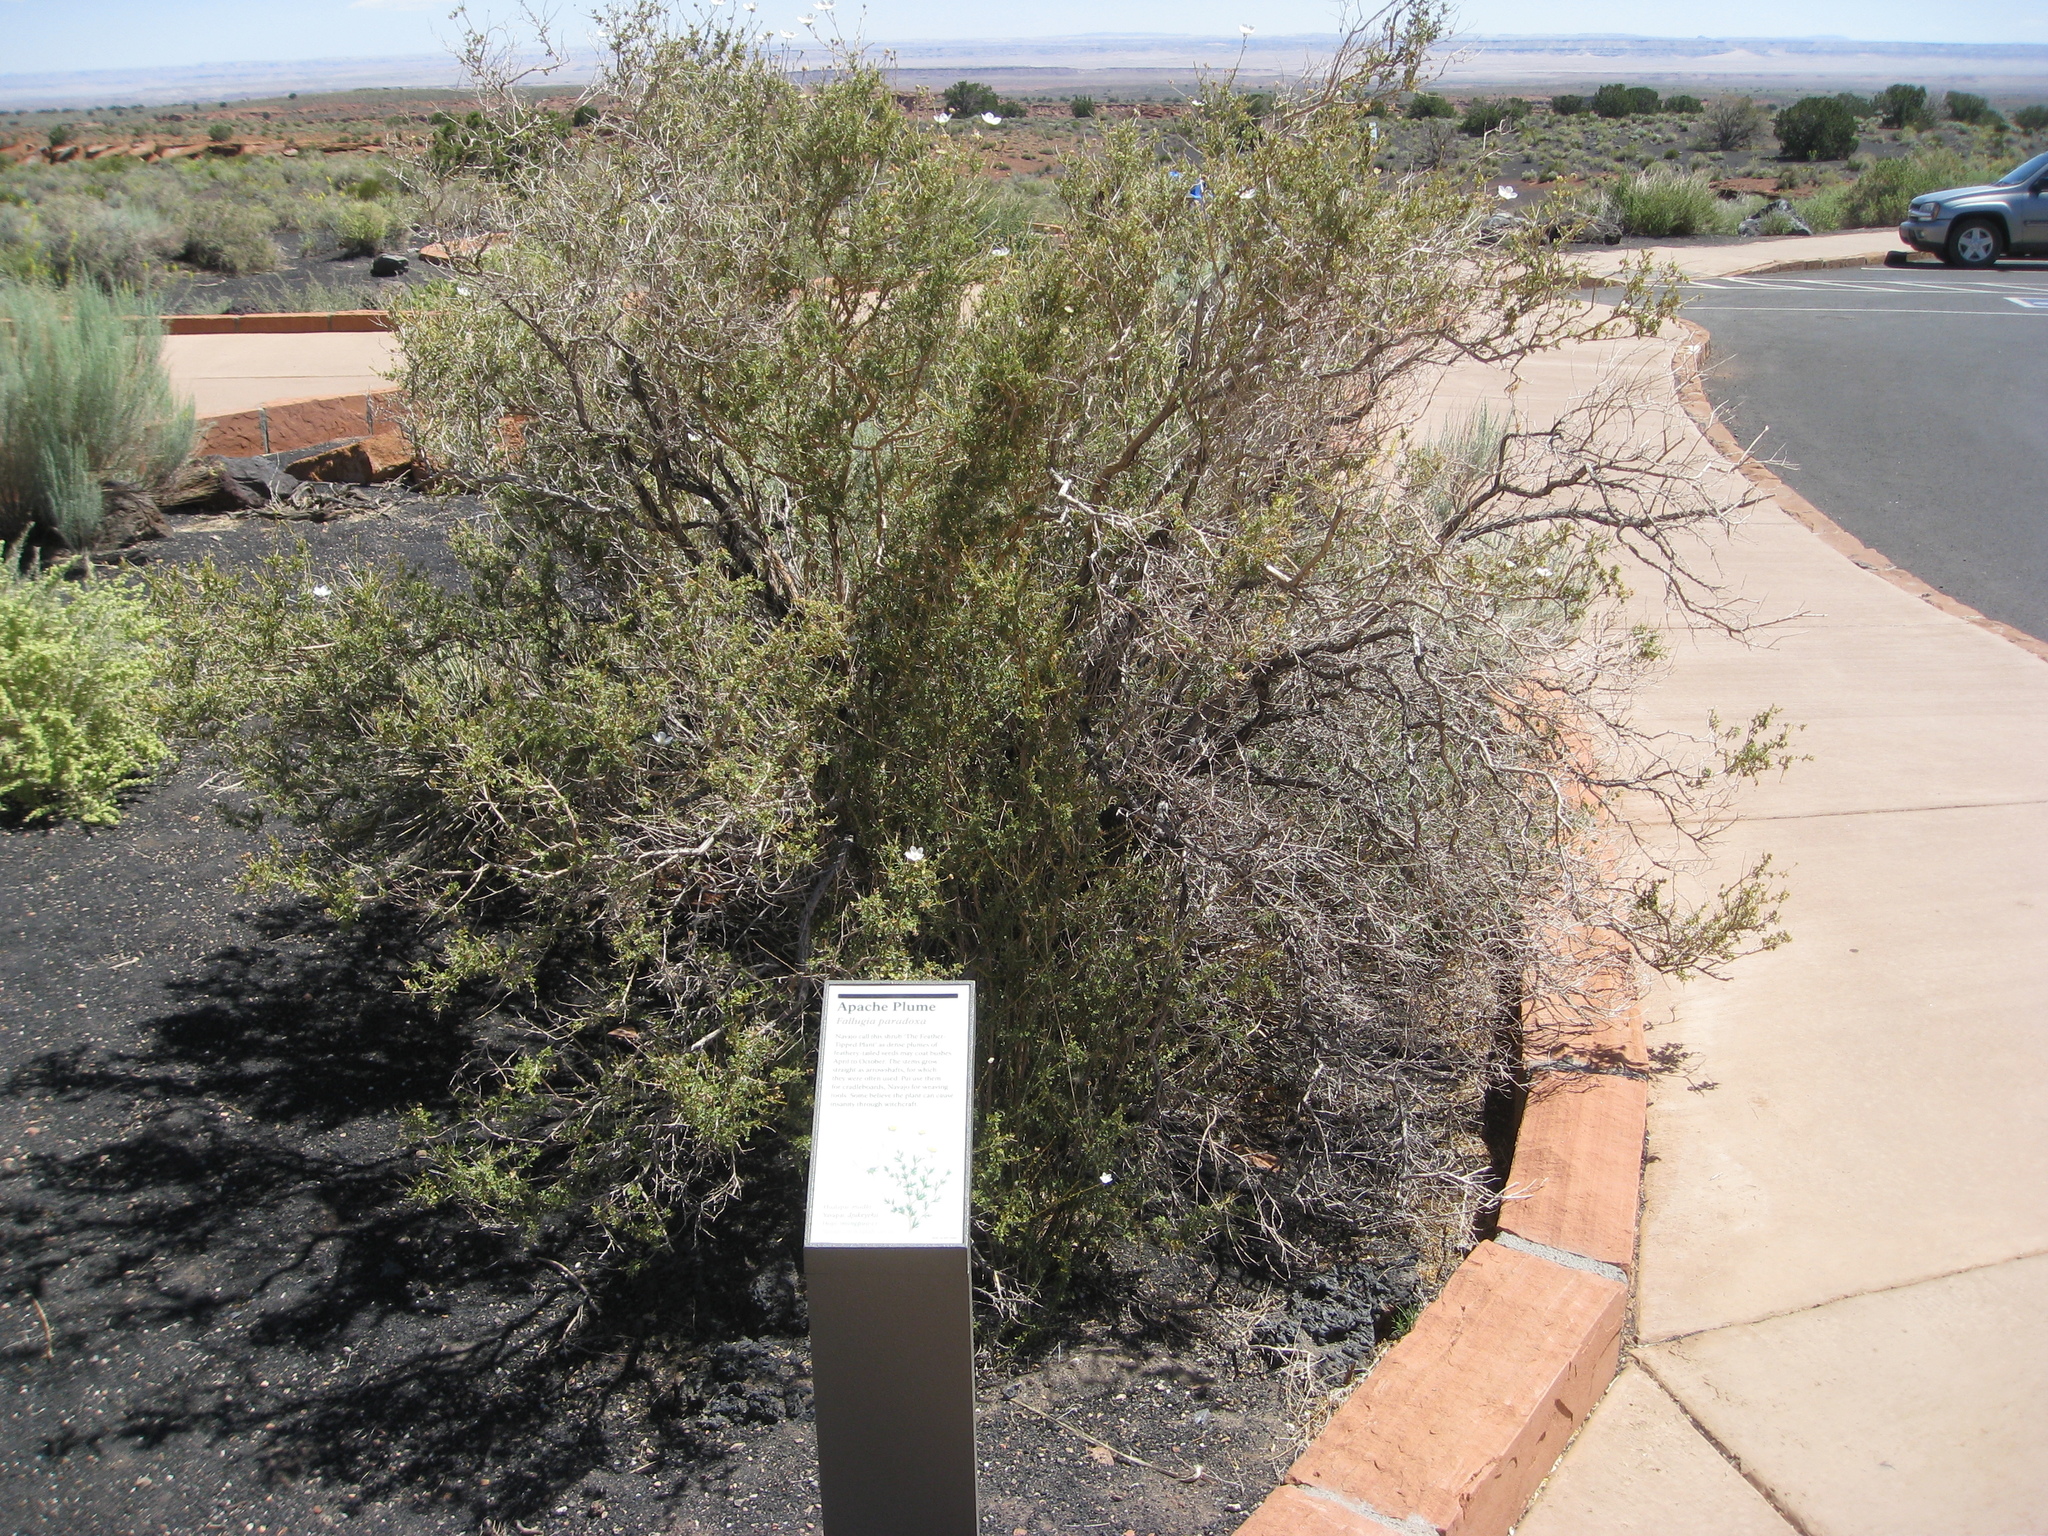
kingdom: Plantae
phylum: Tracheophyta
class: Magnoliopsida
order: Rosales
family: Rosaceae
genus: Fallugia
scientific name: Fallugia paradoxa
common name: Apache-plume
